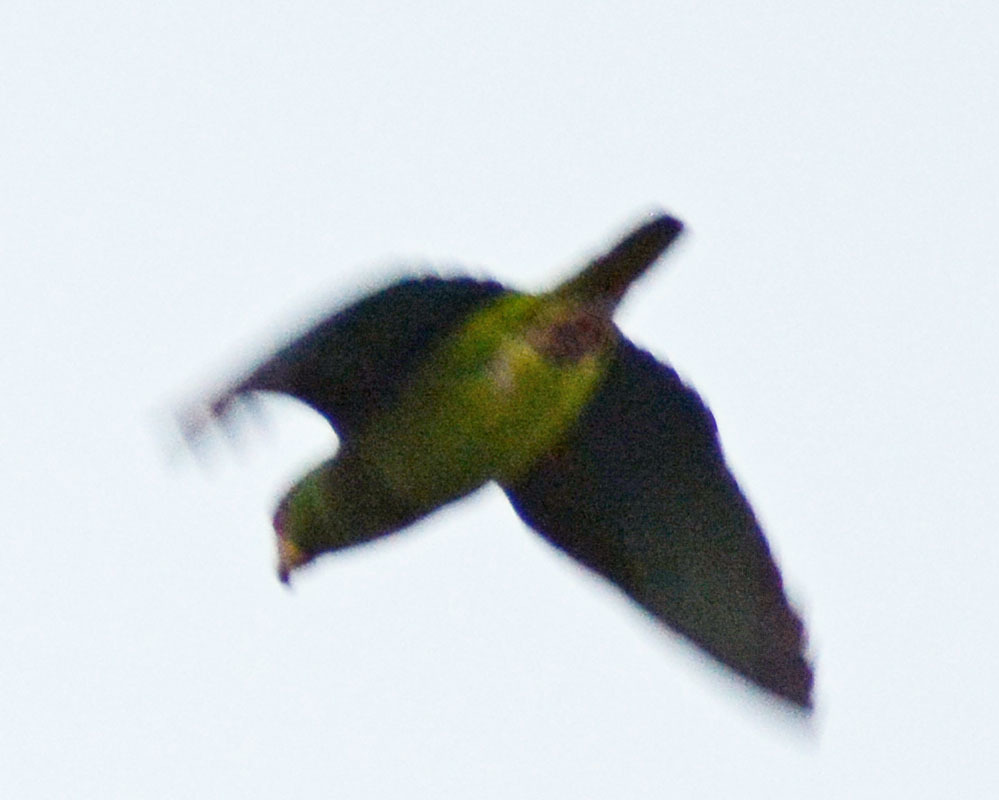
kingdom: Animalia
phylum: Chordata
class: Aves
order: Psittaciformes
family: Psittacidae
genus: Amazona
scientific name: Amazona albifrons
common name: White-fronted amazon
